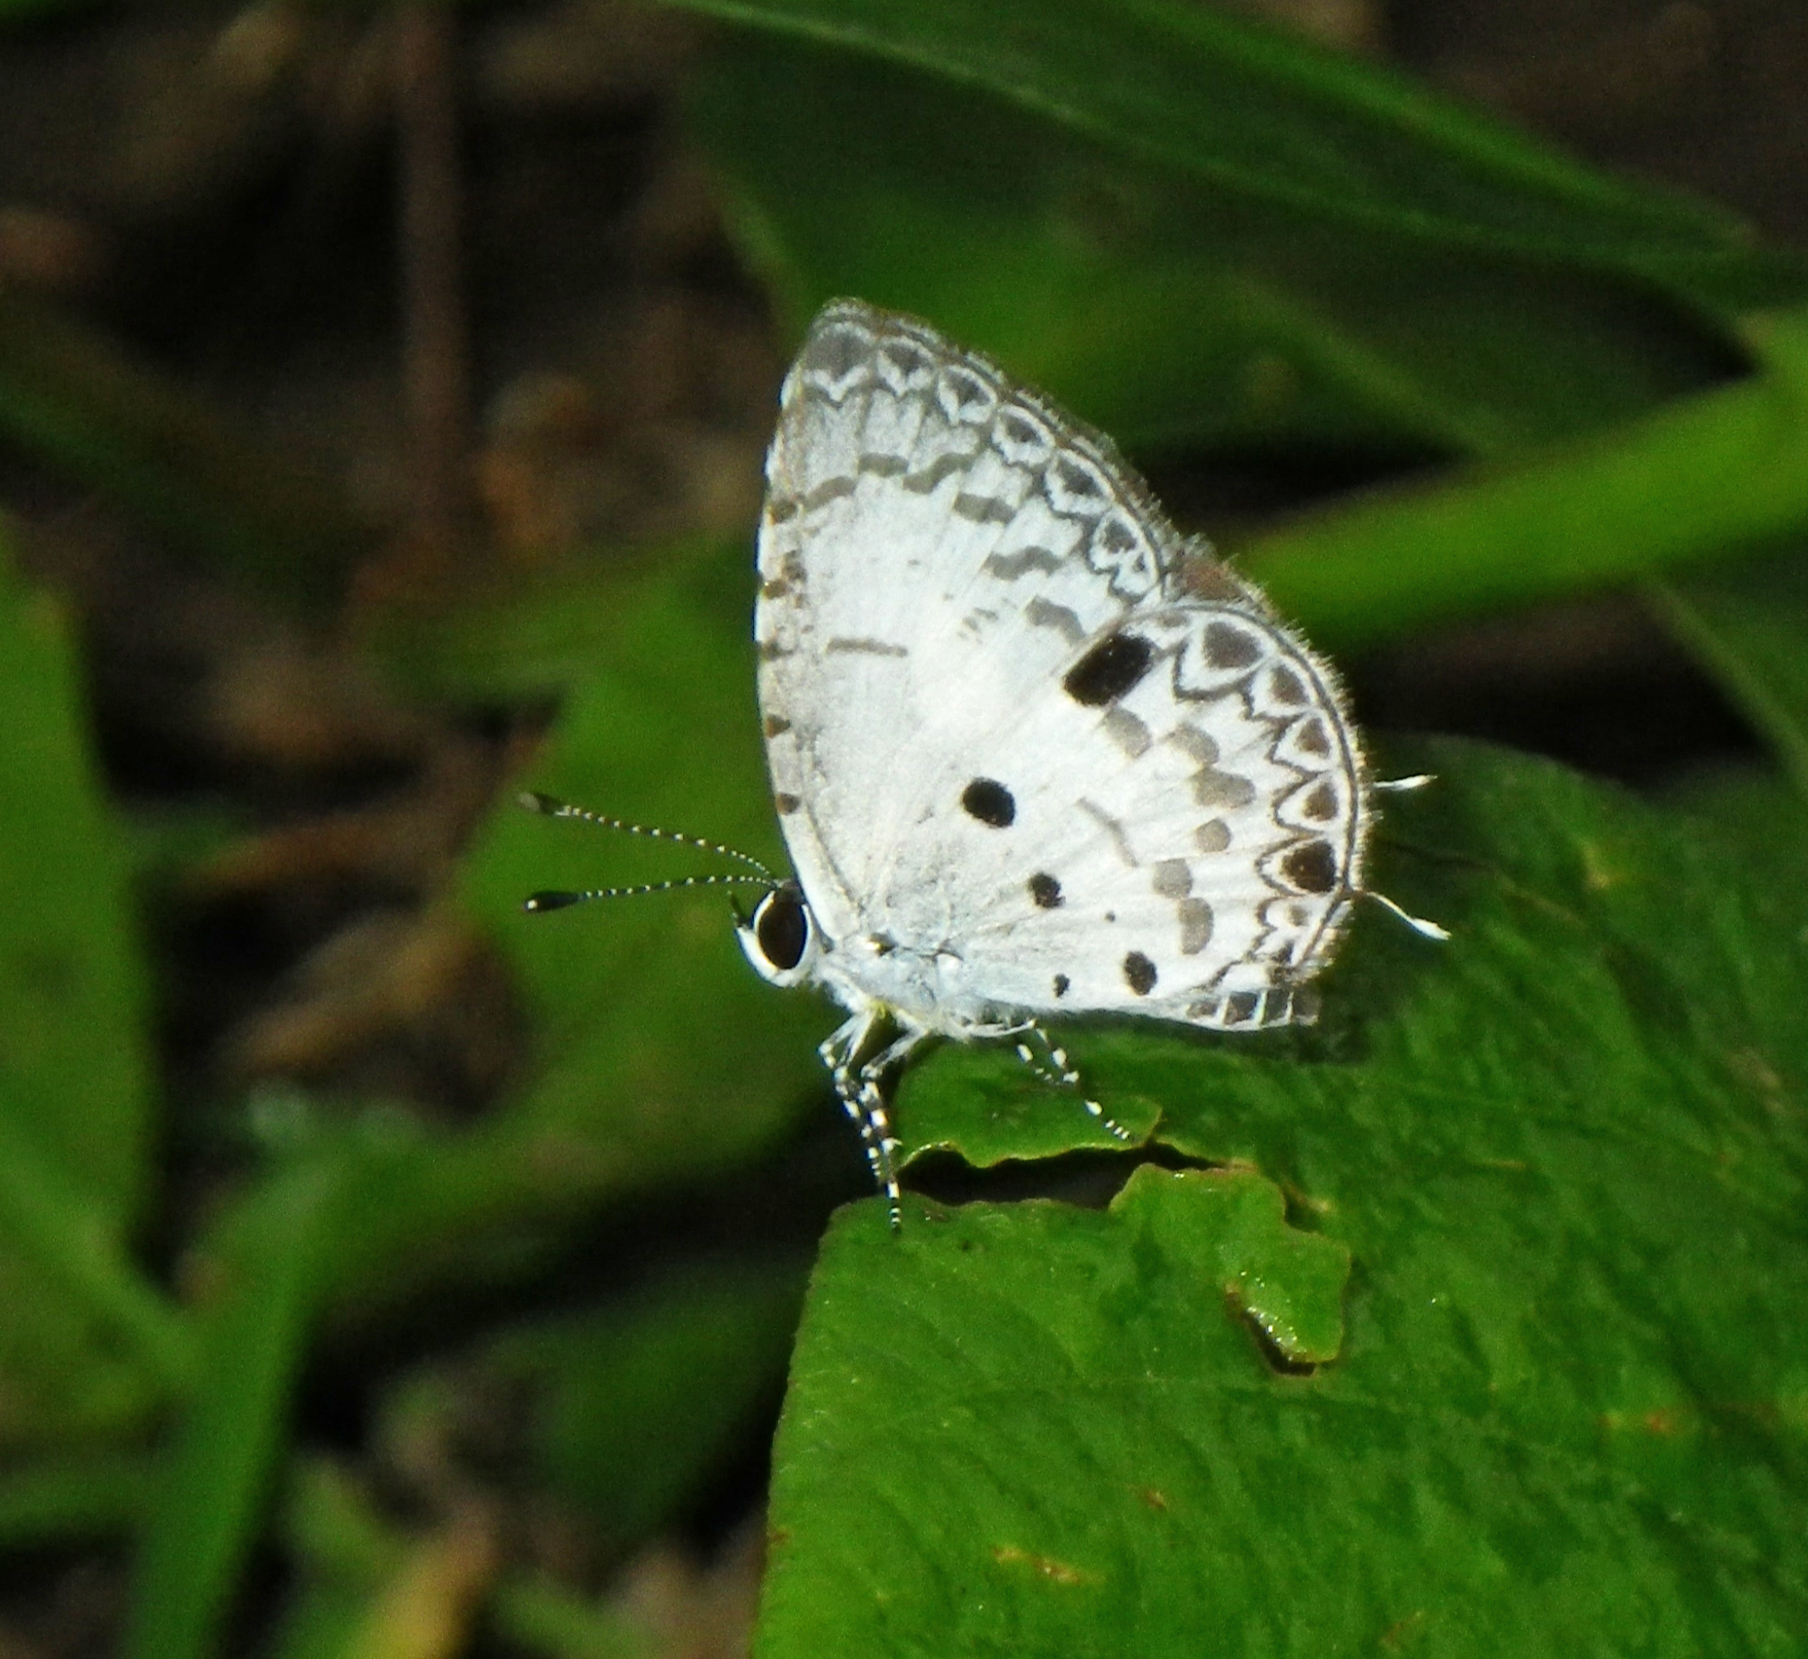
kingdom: Animalia
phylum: Arthropoda
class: Insecta
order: Lepidoptera
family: Lycaenidae
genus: Megisba
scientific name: Megisba malaya
